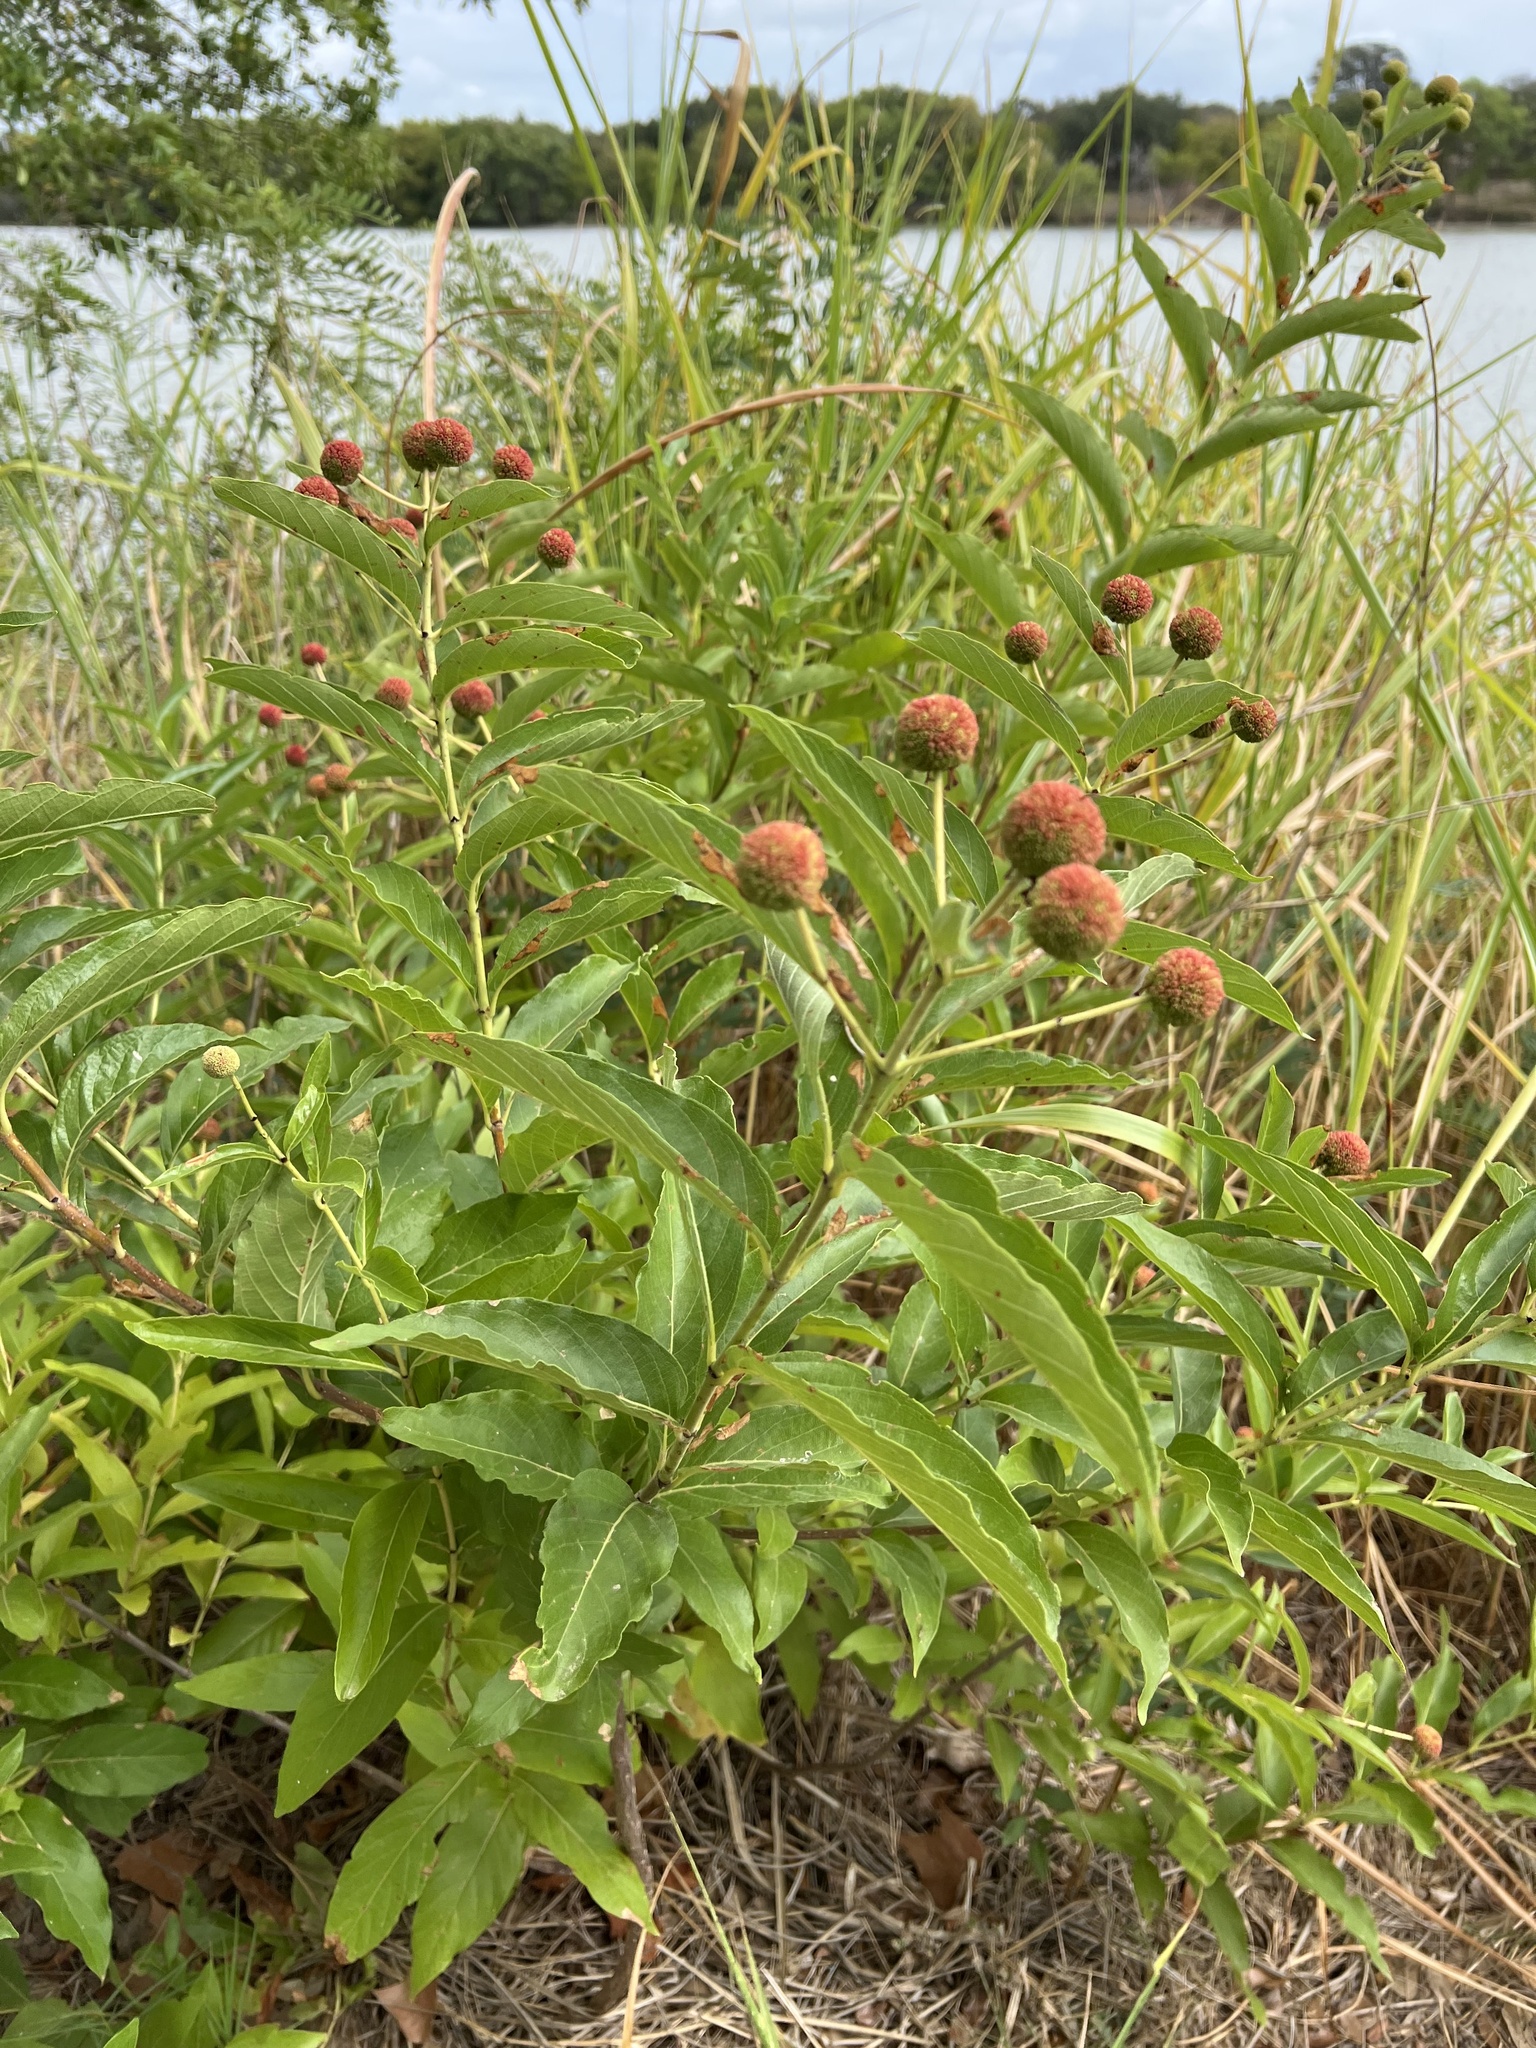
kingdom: Plantae
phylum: Tracheophyta
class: Magnoliopsida
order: Gentianales
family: Rubiaceae
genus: Cephalanthus
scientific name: Cephalanthus occidentalis
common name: Button-willow
